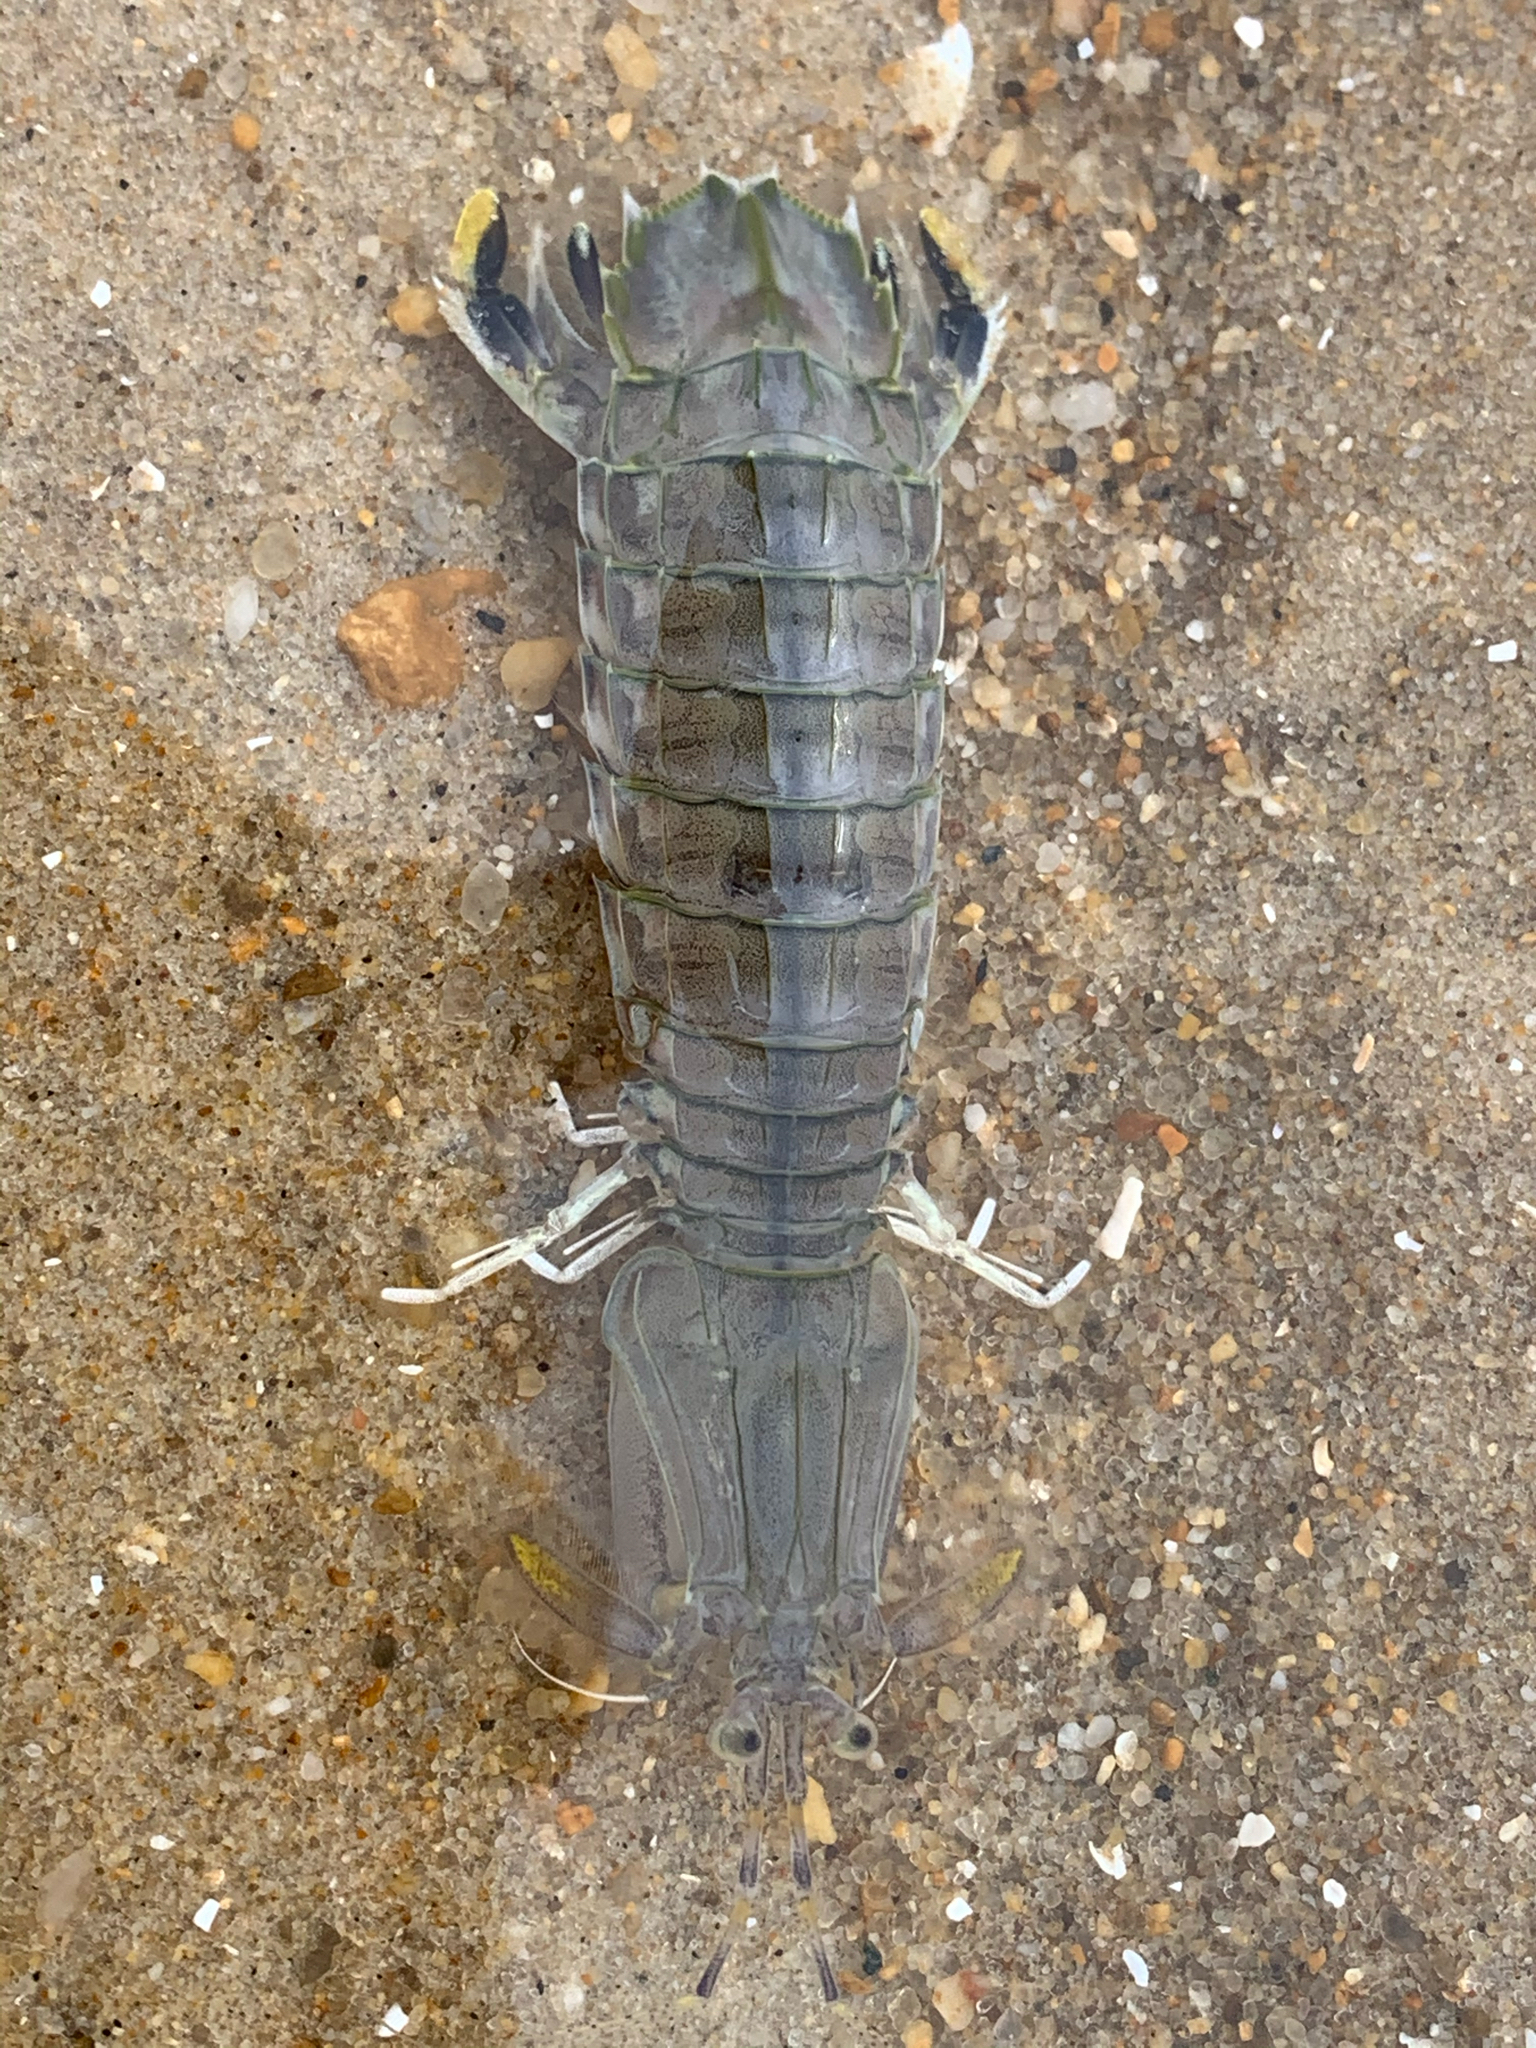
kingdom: Animalia
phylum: Arthropoda
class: Malacostraca
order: Stomatopoda
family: Squillidae
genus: Squilla
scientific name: Squilla empusa
